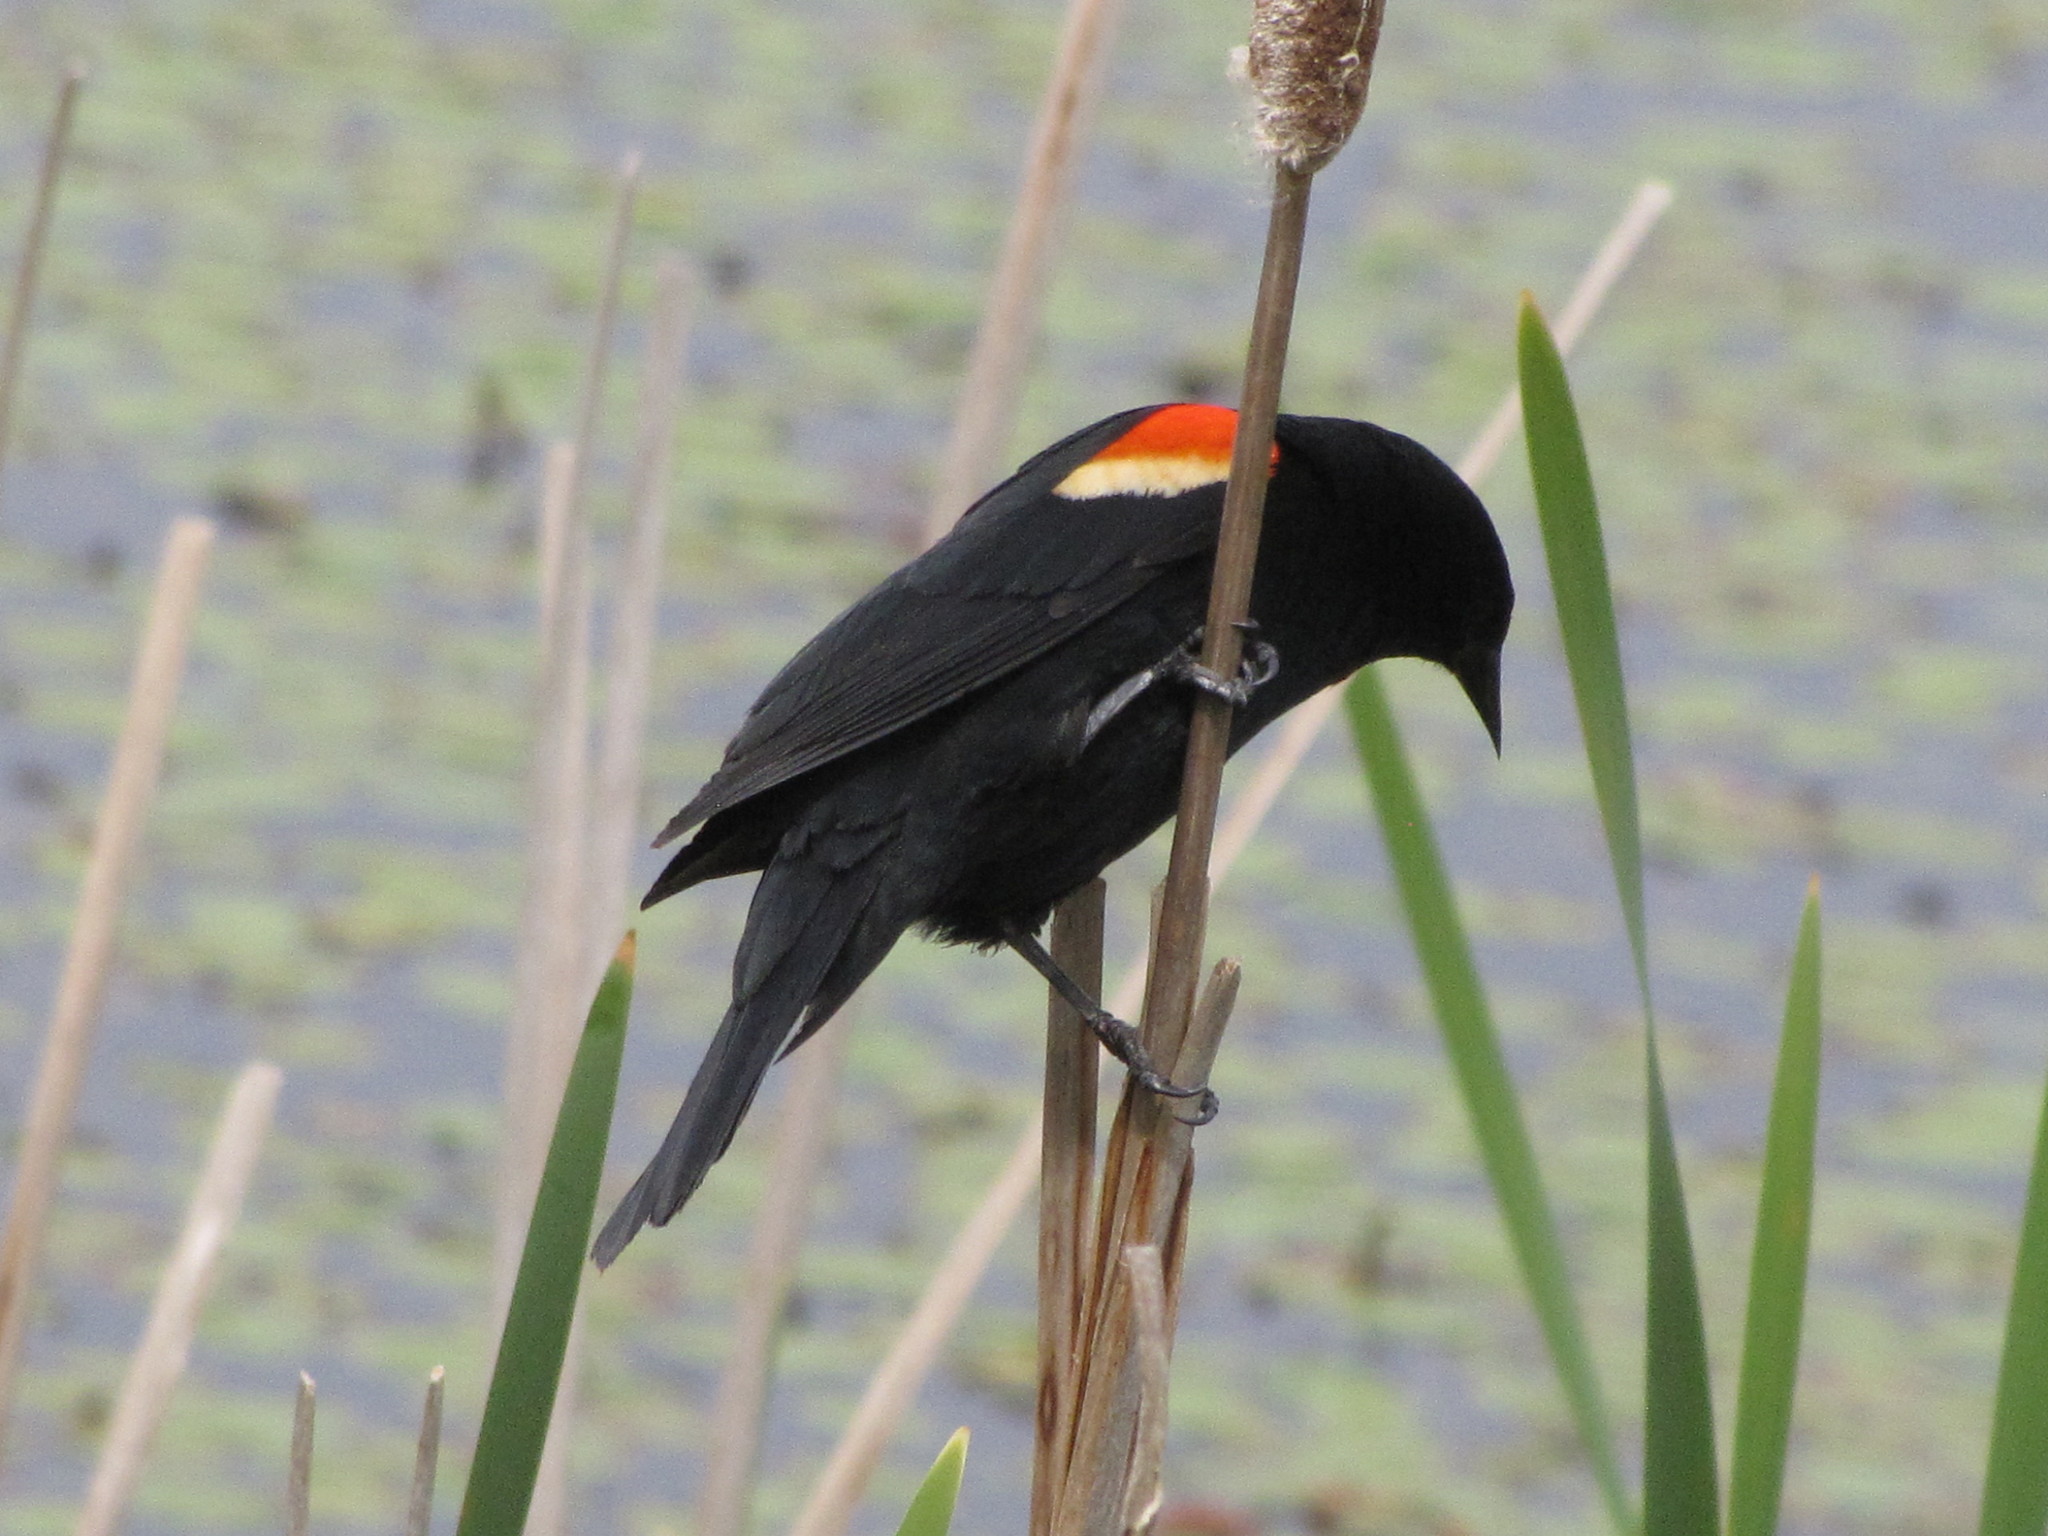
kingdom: Animalia
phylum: Chordata
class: Aves
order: Passeriformes
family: Icteridae
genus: Agelaius
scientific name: Agelaius phoeniceus
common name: Red-winged blackbird
